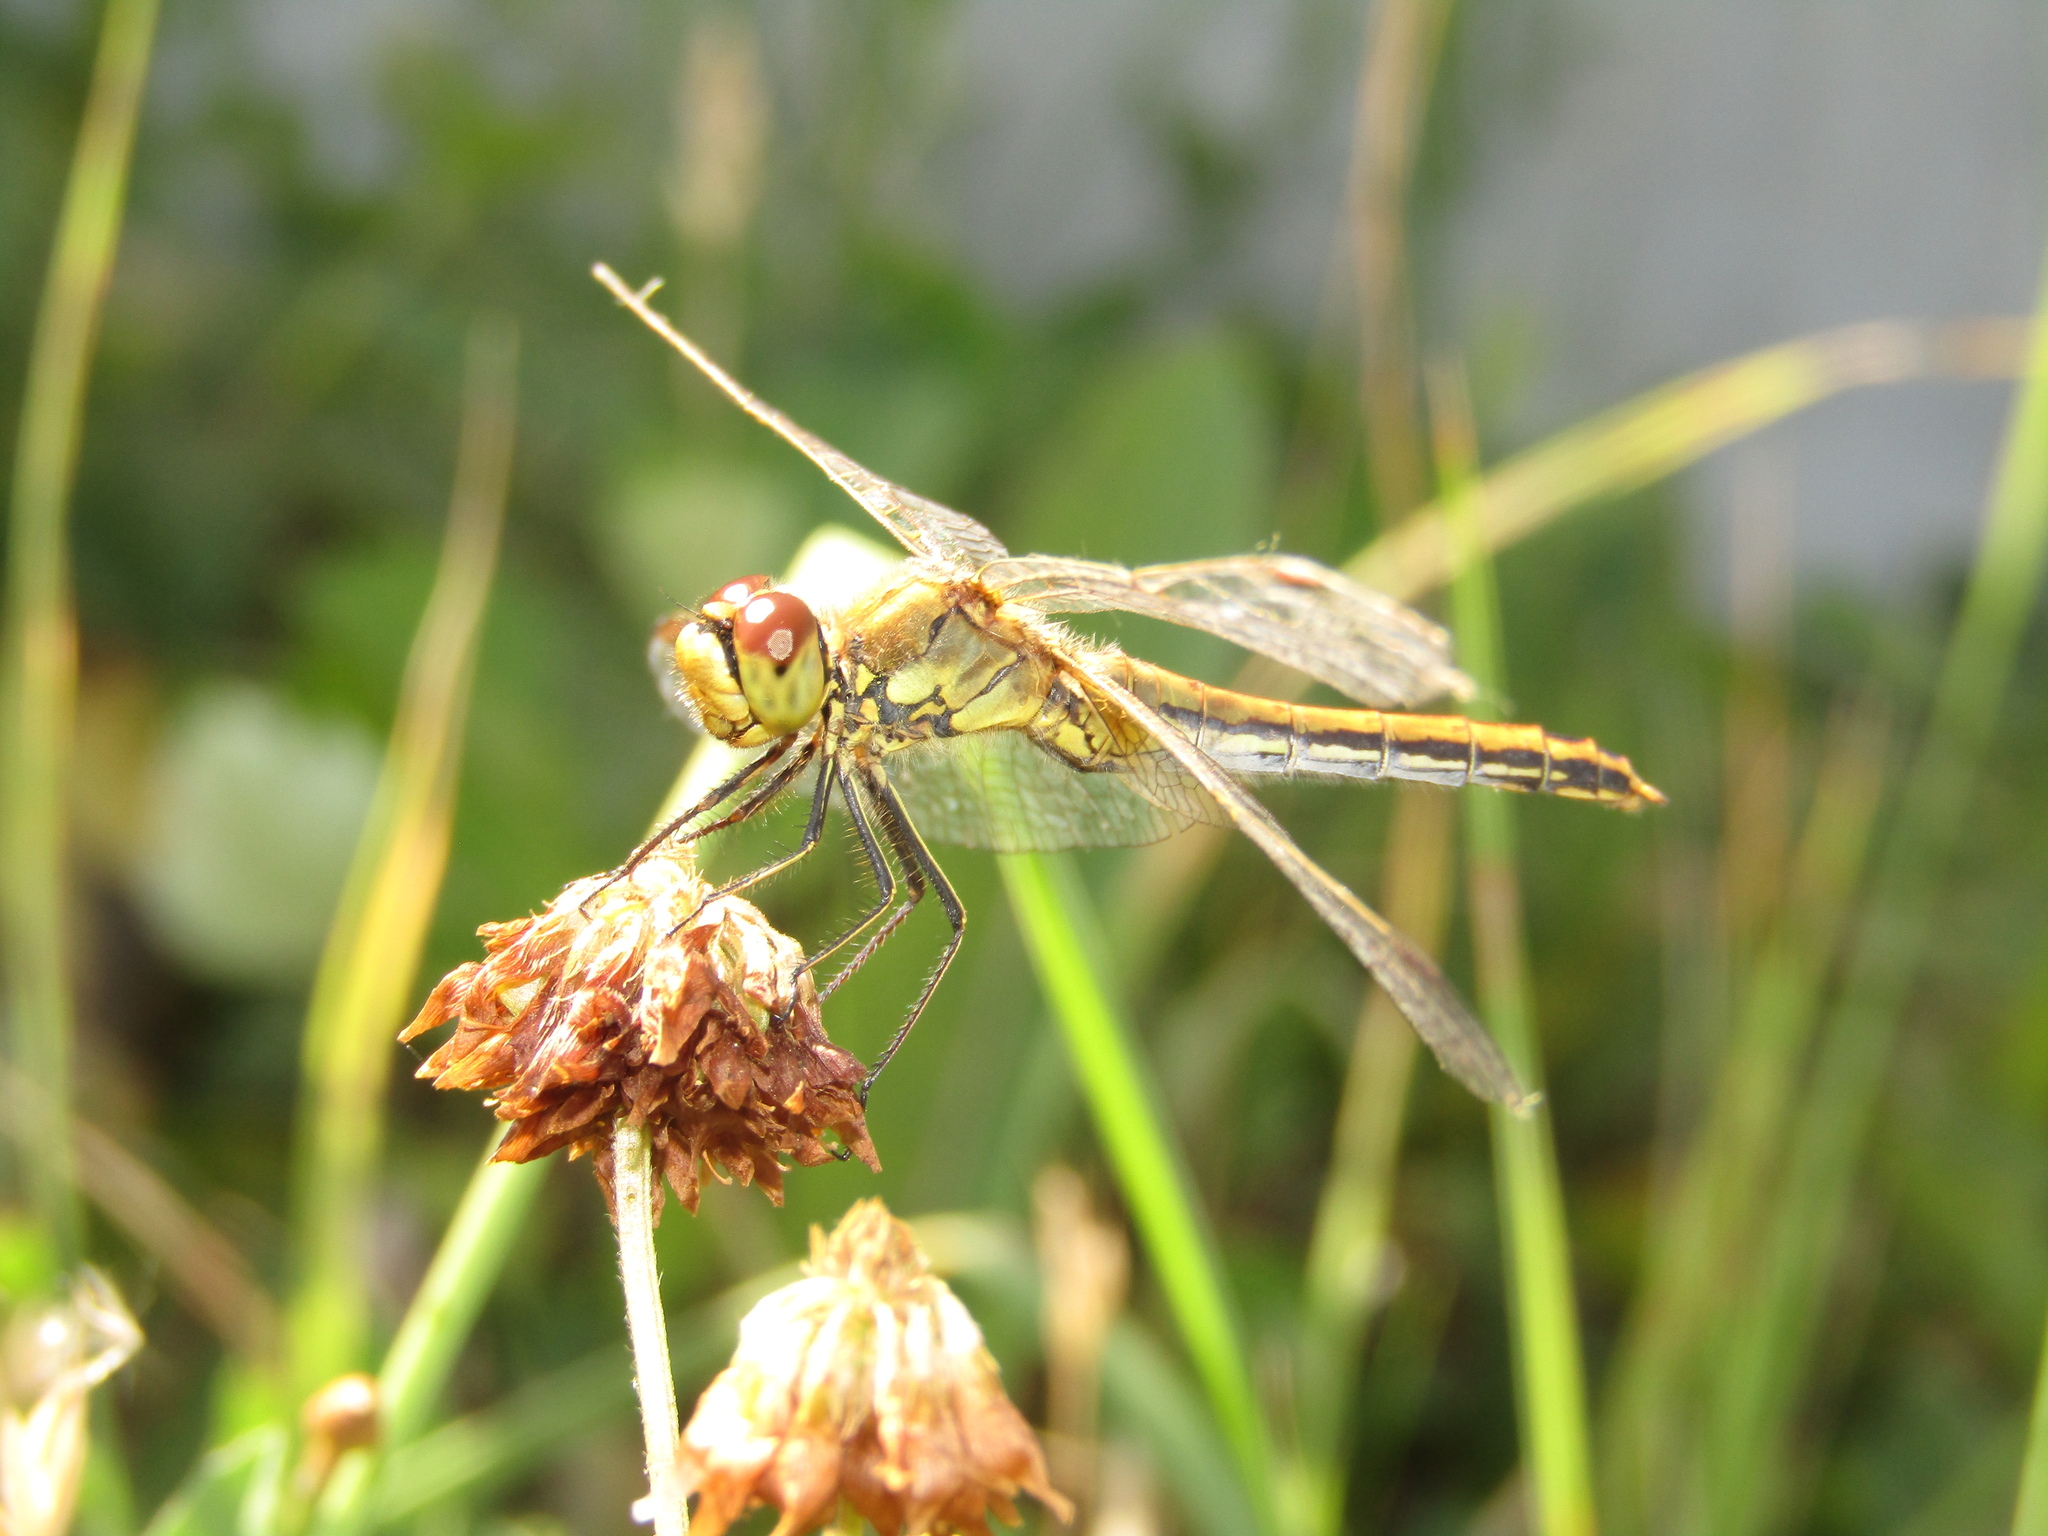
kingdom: Animalia
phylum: Arthropoda
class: Insecta
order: Odonata
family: Libellulidae
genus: Sympetrum
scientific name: Sympetrum flaveolum
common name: Yellow-winged darter
